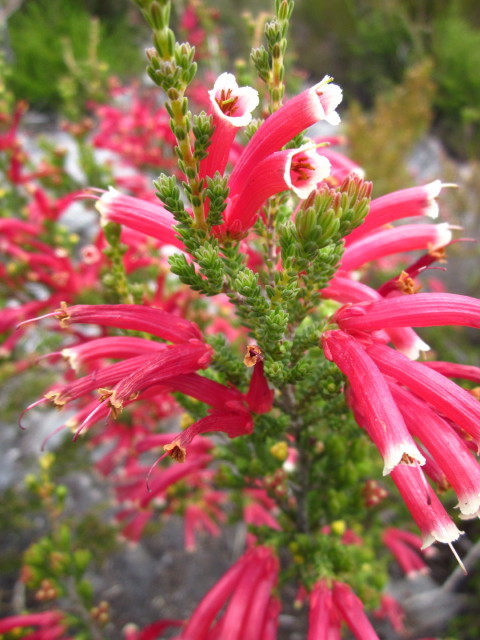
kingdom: Plantae
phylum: Tracheophyta
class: Magnoliopsida
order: Ericales
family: Ericaceae
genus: Erica
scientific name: Erica versicolor
